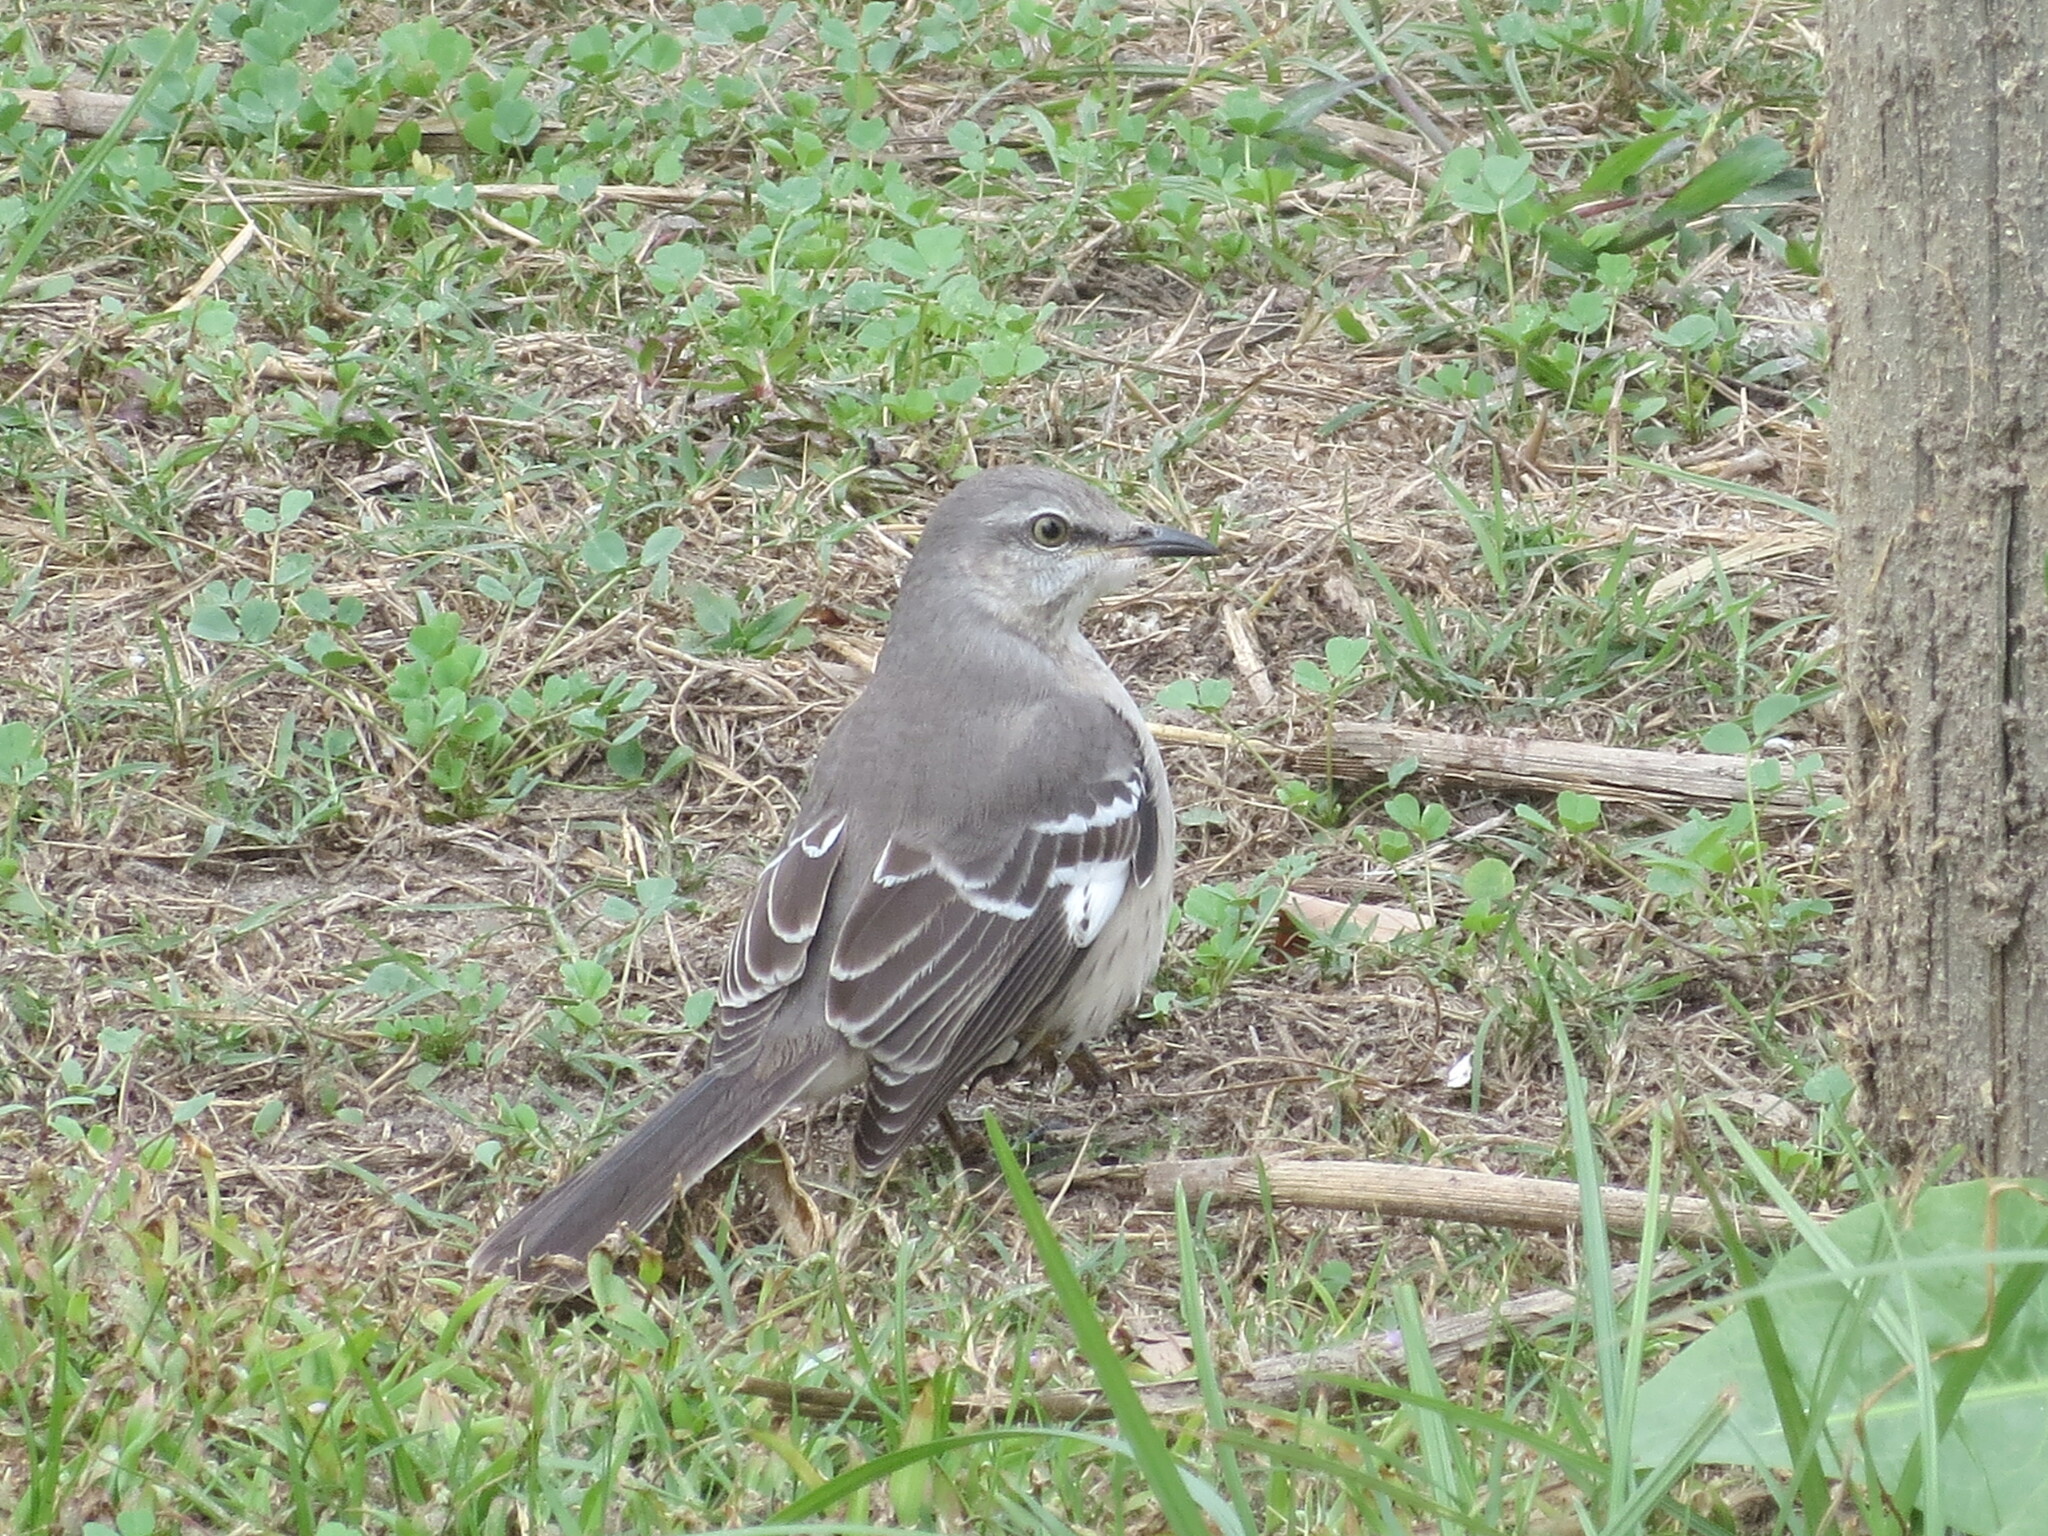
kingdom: Animalia
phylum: Chordata
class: Aves
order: Passeriformes
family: Mimidae
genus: Mimus
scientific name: Mimus polyglottos
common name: Northern mockingbird
